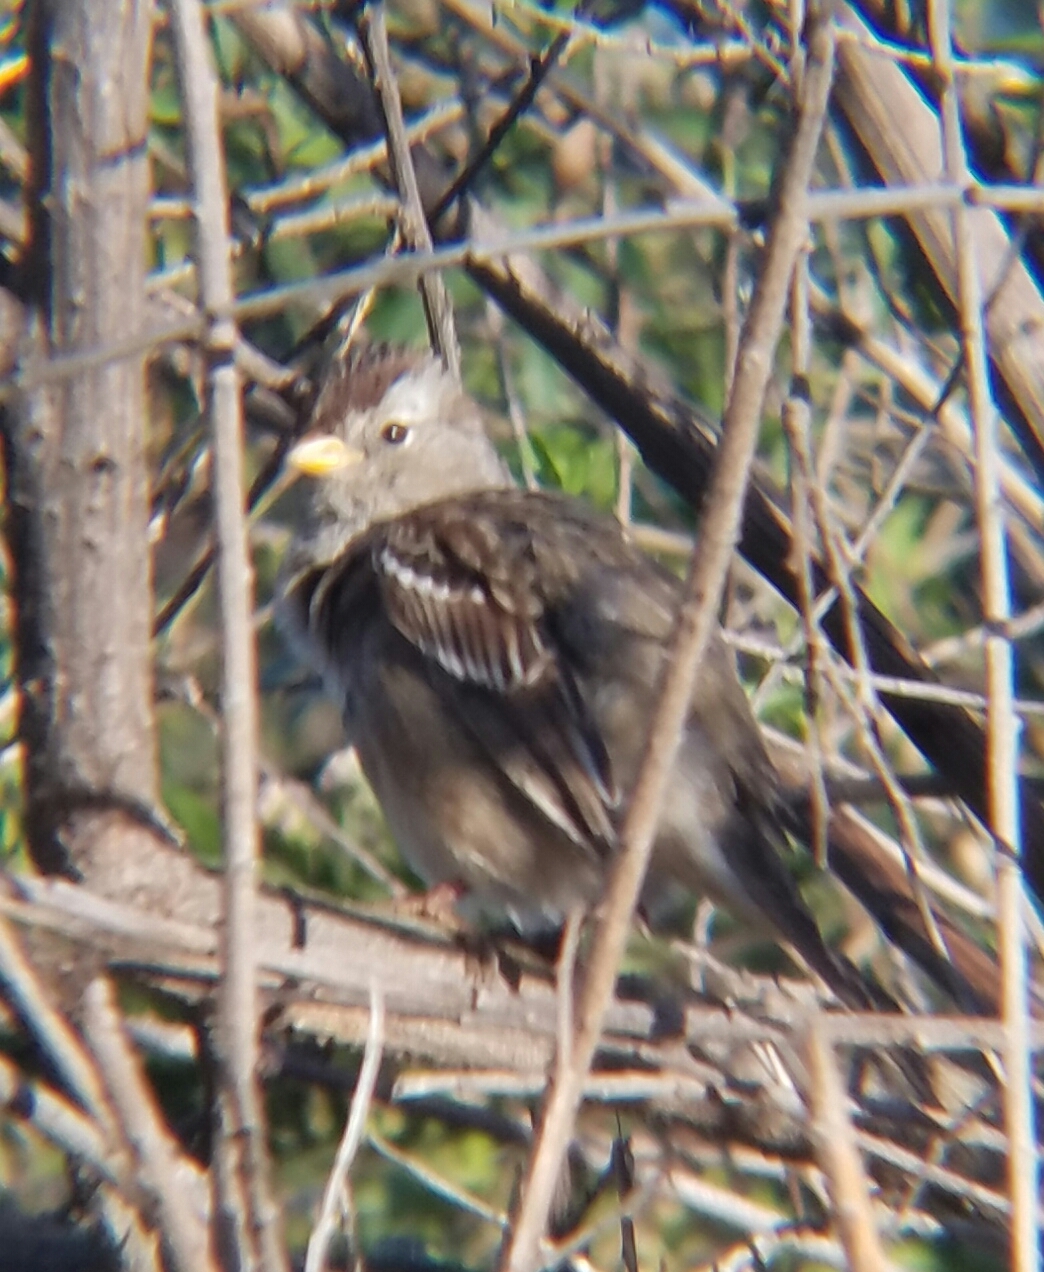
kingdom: Animalia
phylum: Chordata
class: Aves
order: Passeriformes
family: Passerellidae
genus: Zonotrichia
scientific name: Zonotrichia leucophrys
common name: White-crowned sparrow
